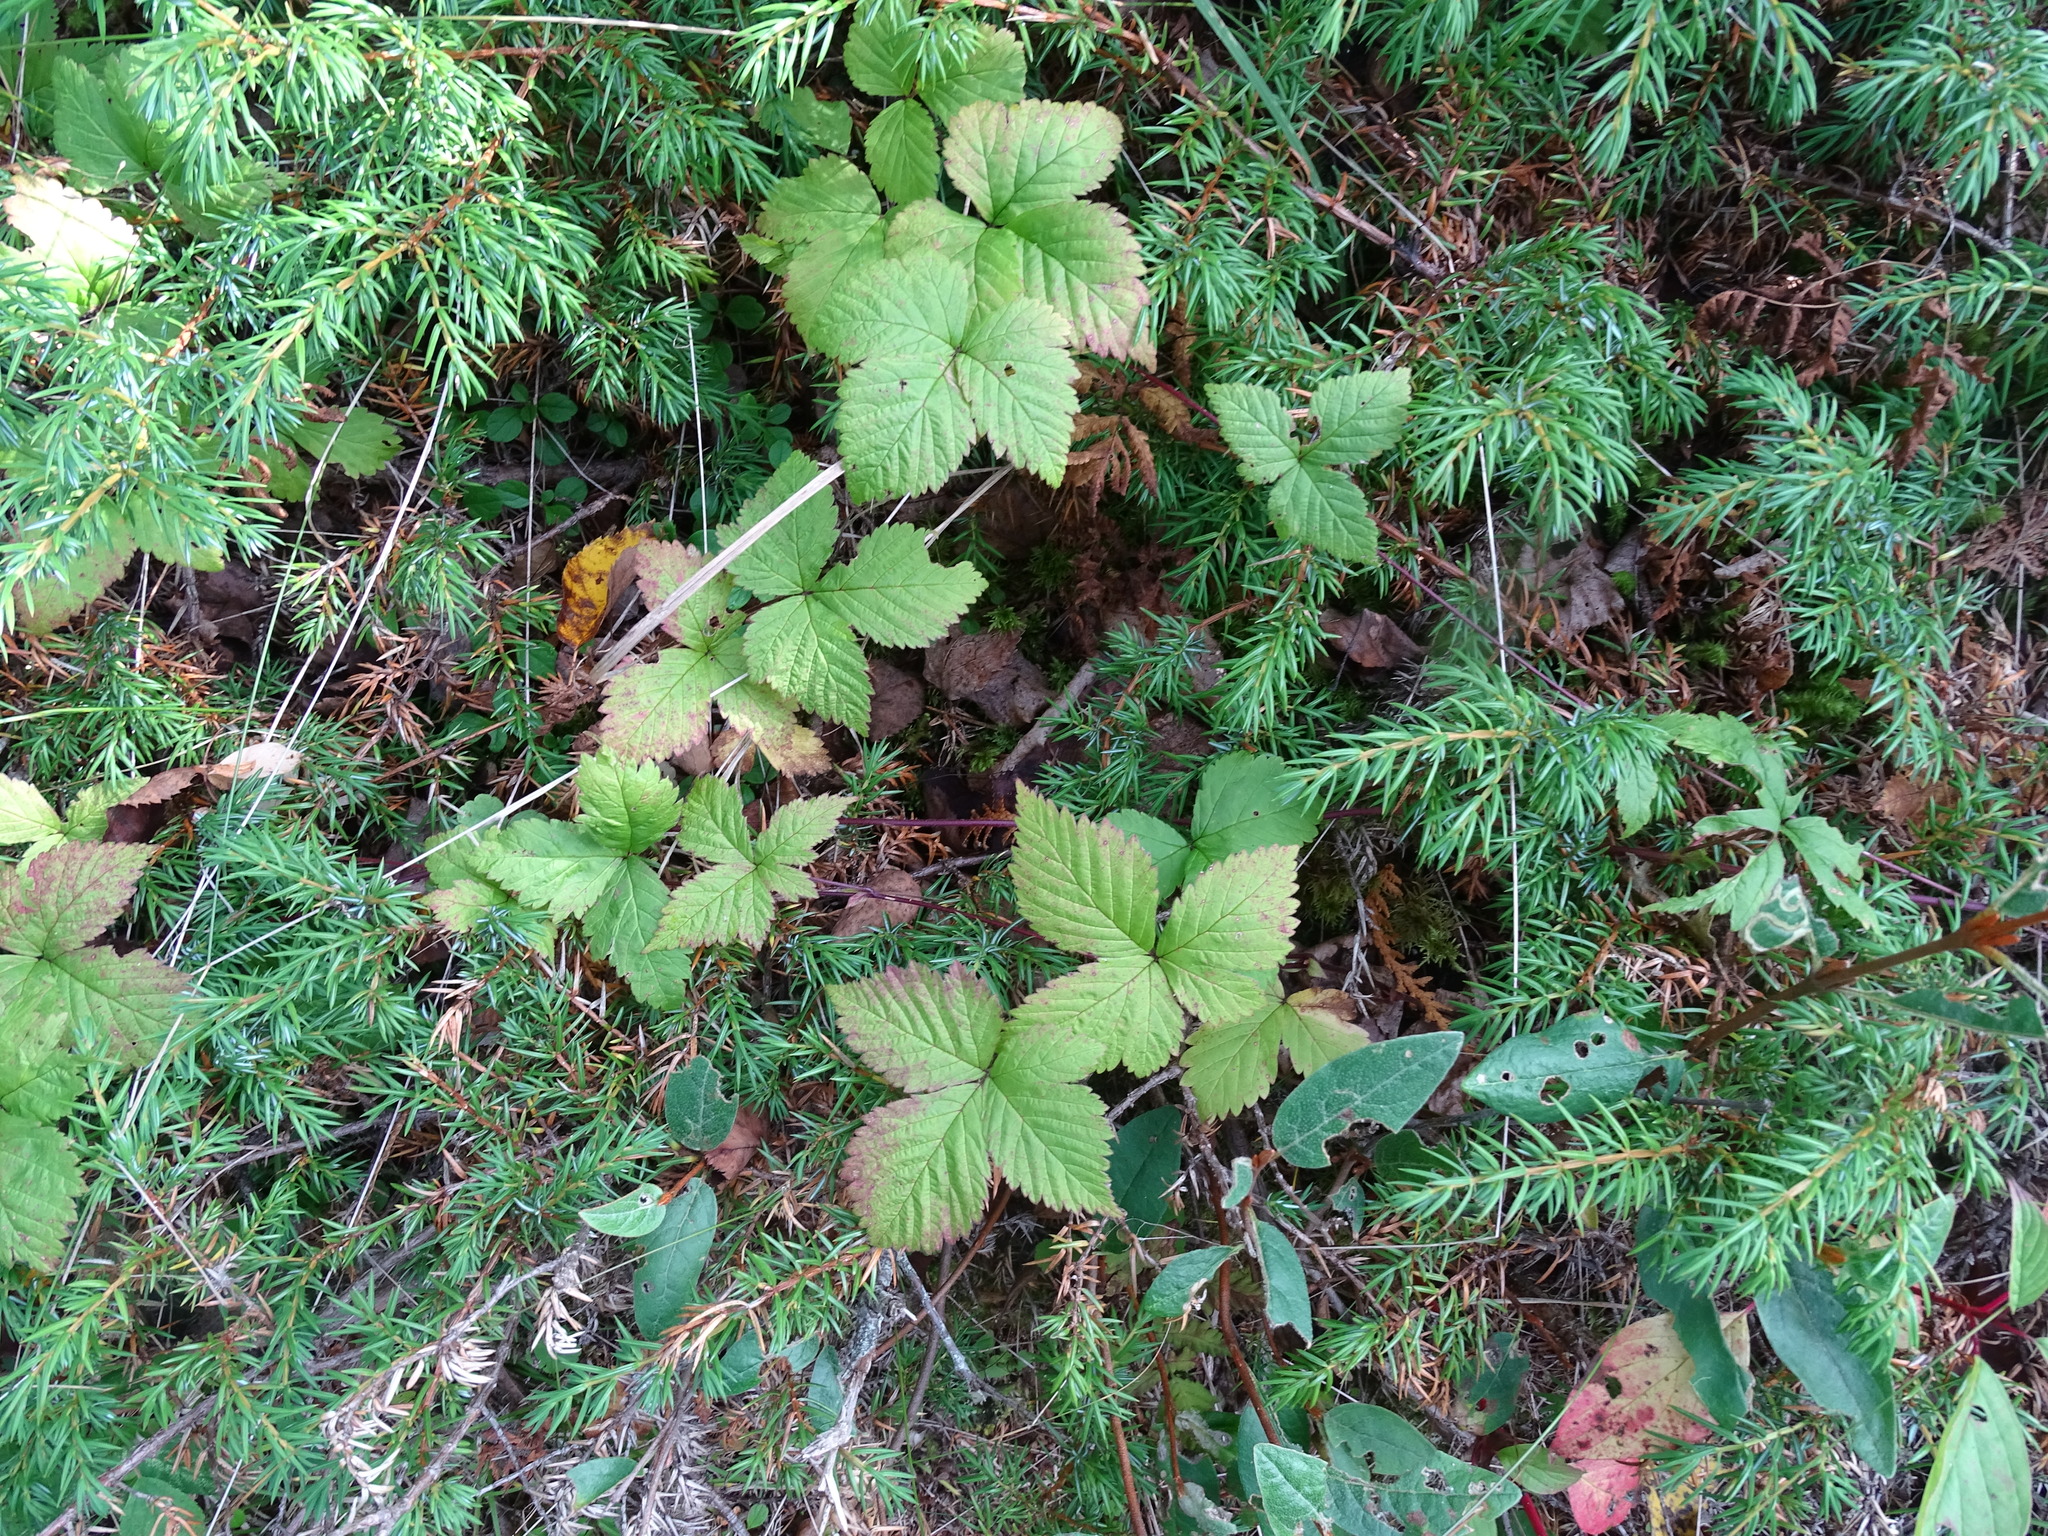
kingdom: Plantae
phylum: Tracheophyta
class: Magnoliopsida
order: Rosales
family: Rosaceae
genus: Rubus
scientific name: Rubus pubescens
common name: Dwarf raspberry
